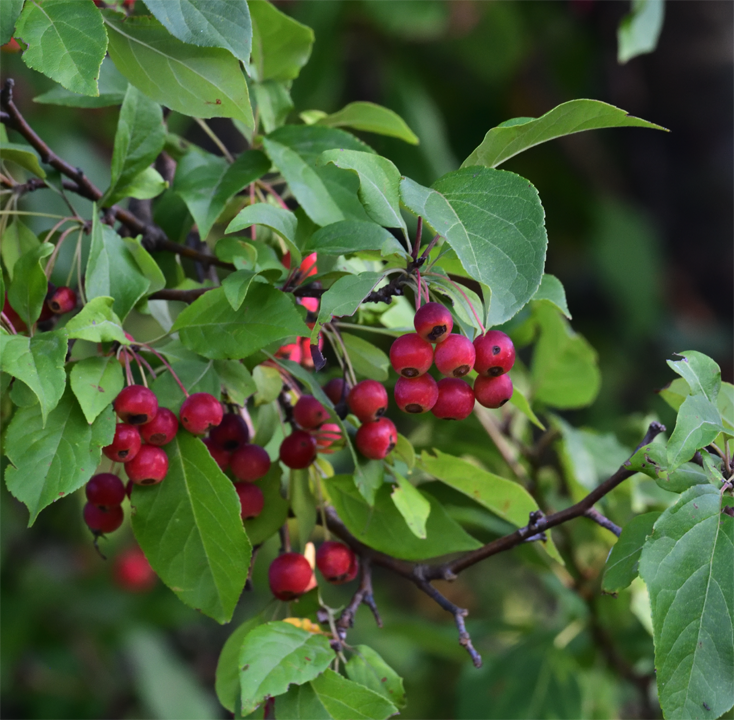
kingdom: Plantae
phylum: Tracheophyta
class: Magnoliopsida
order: Rosales
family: Rosaceae
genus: Malus
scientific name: Malus baccata
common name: Siberian crab
